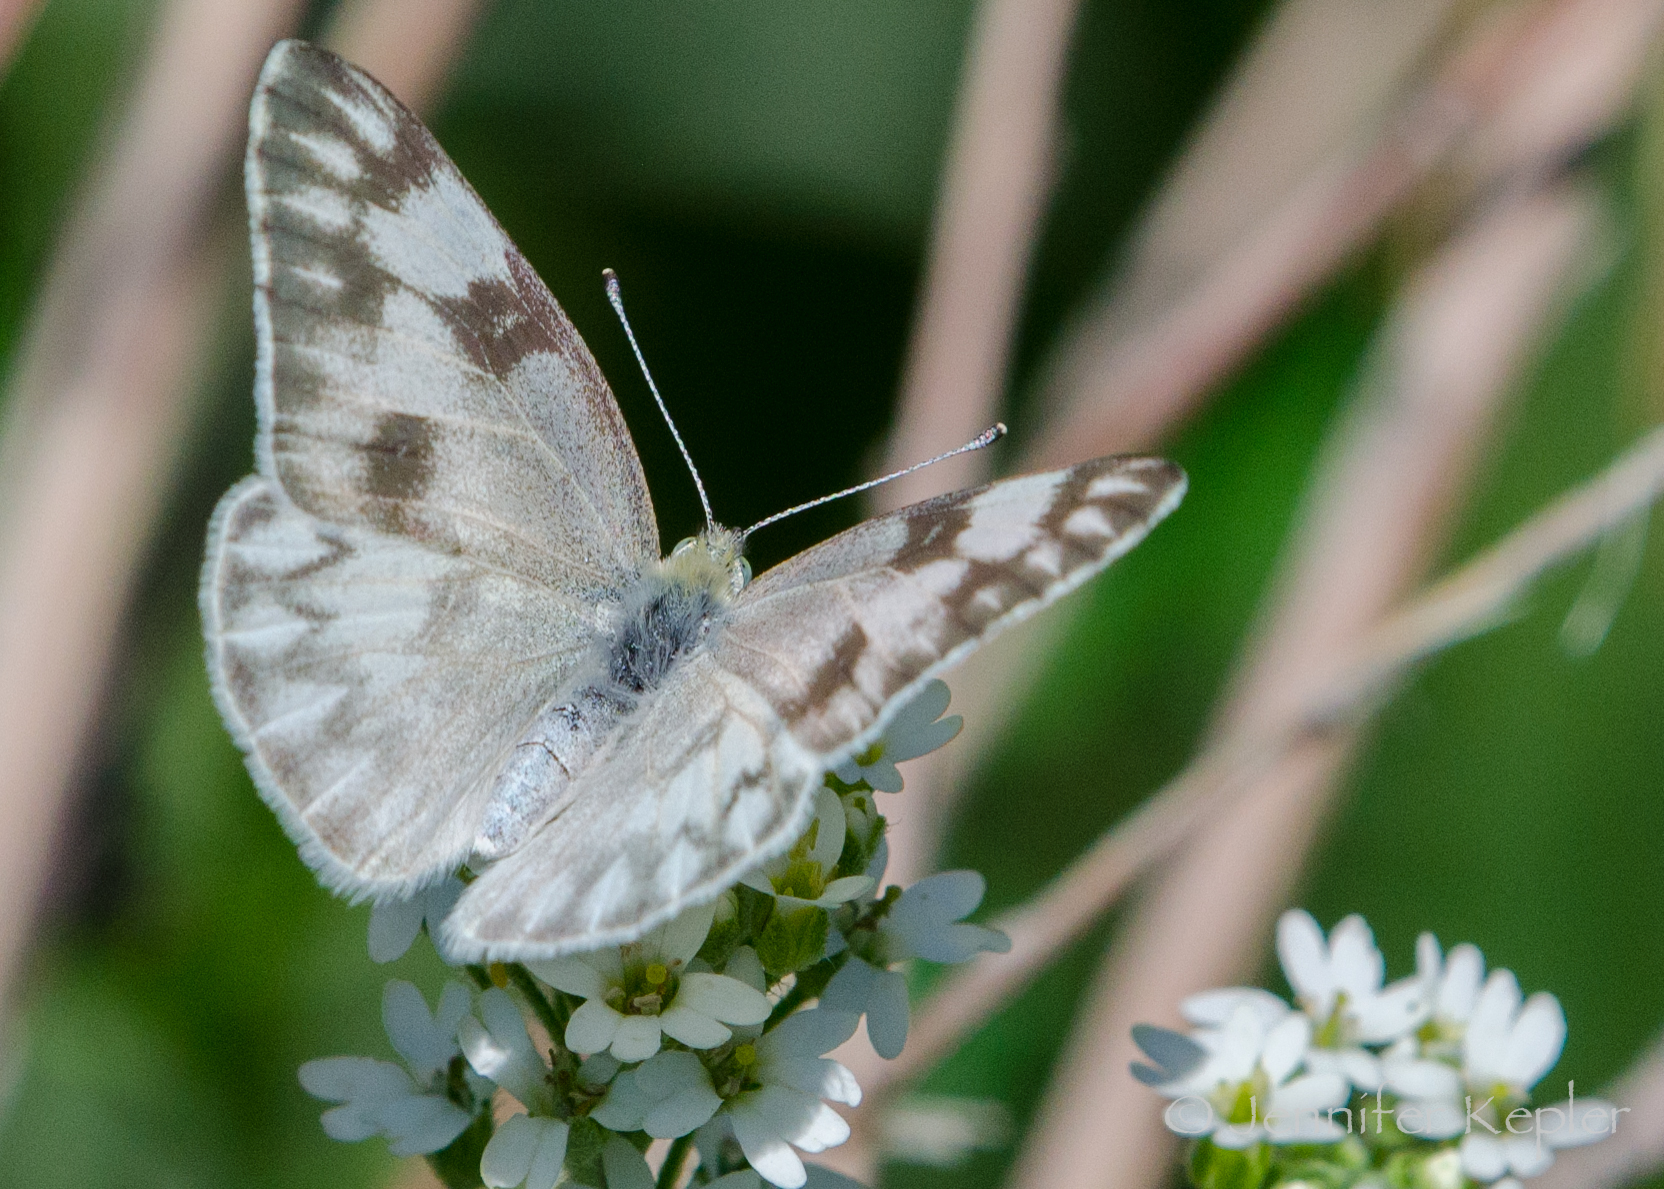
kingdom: Animalia
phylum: Arthropoda
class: Insecta
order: Lepidoptera
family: Pieridae
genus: Pontia
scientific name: Pontia protodice
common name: Checkered white
